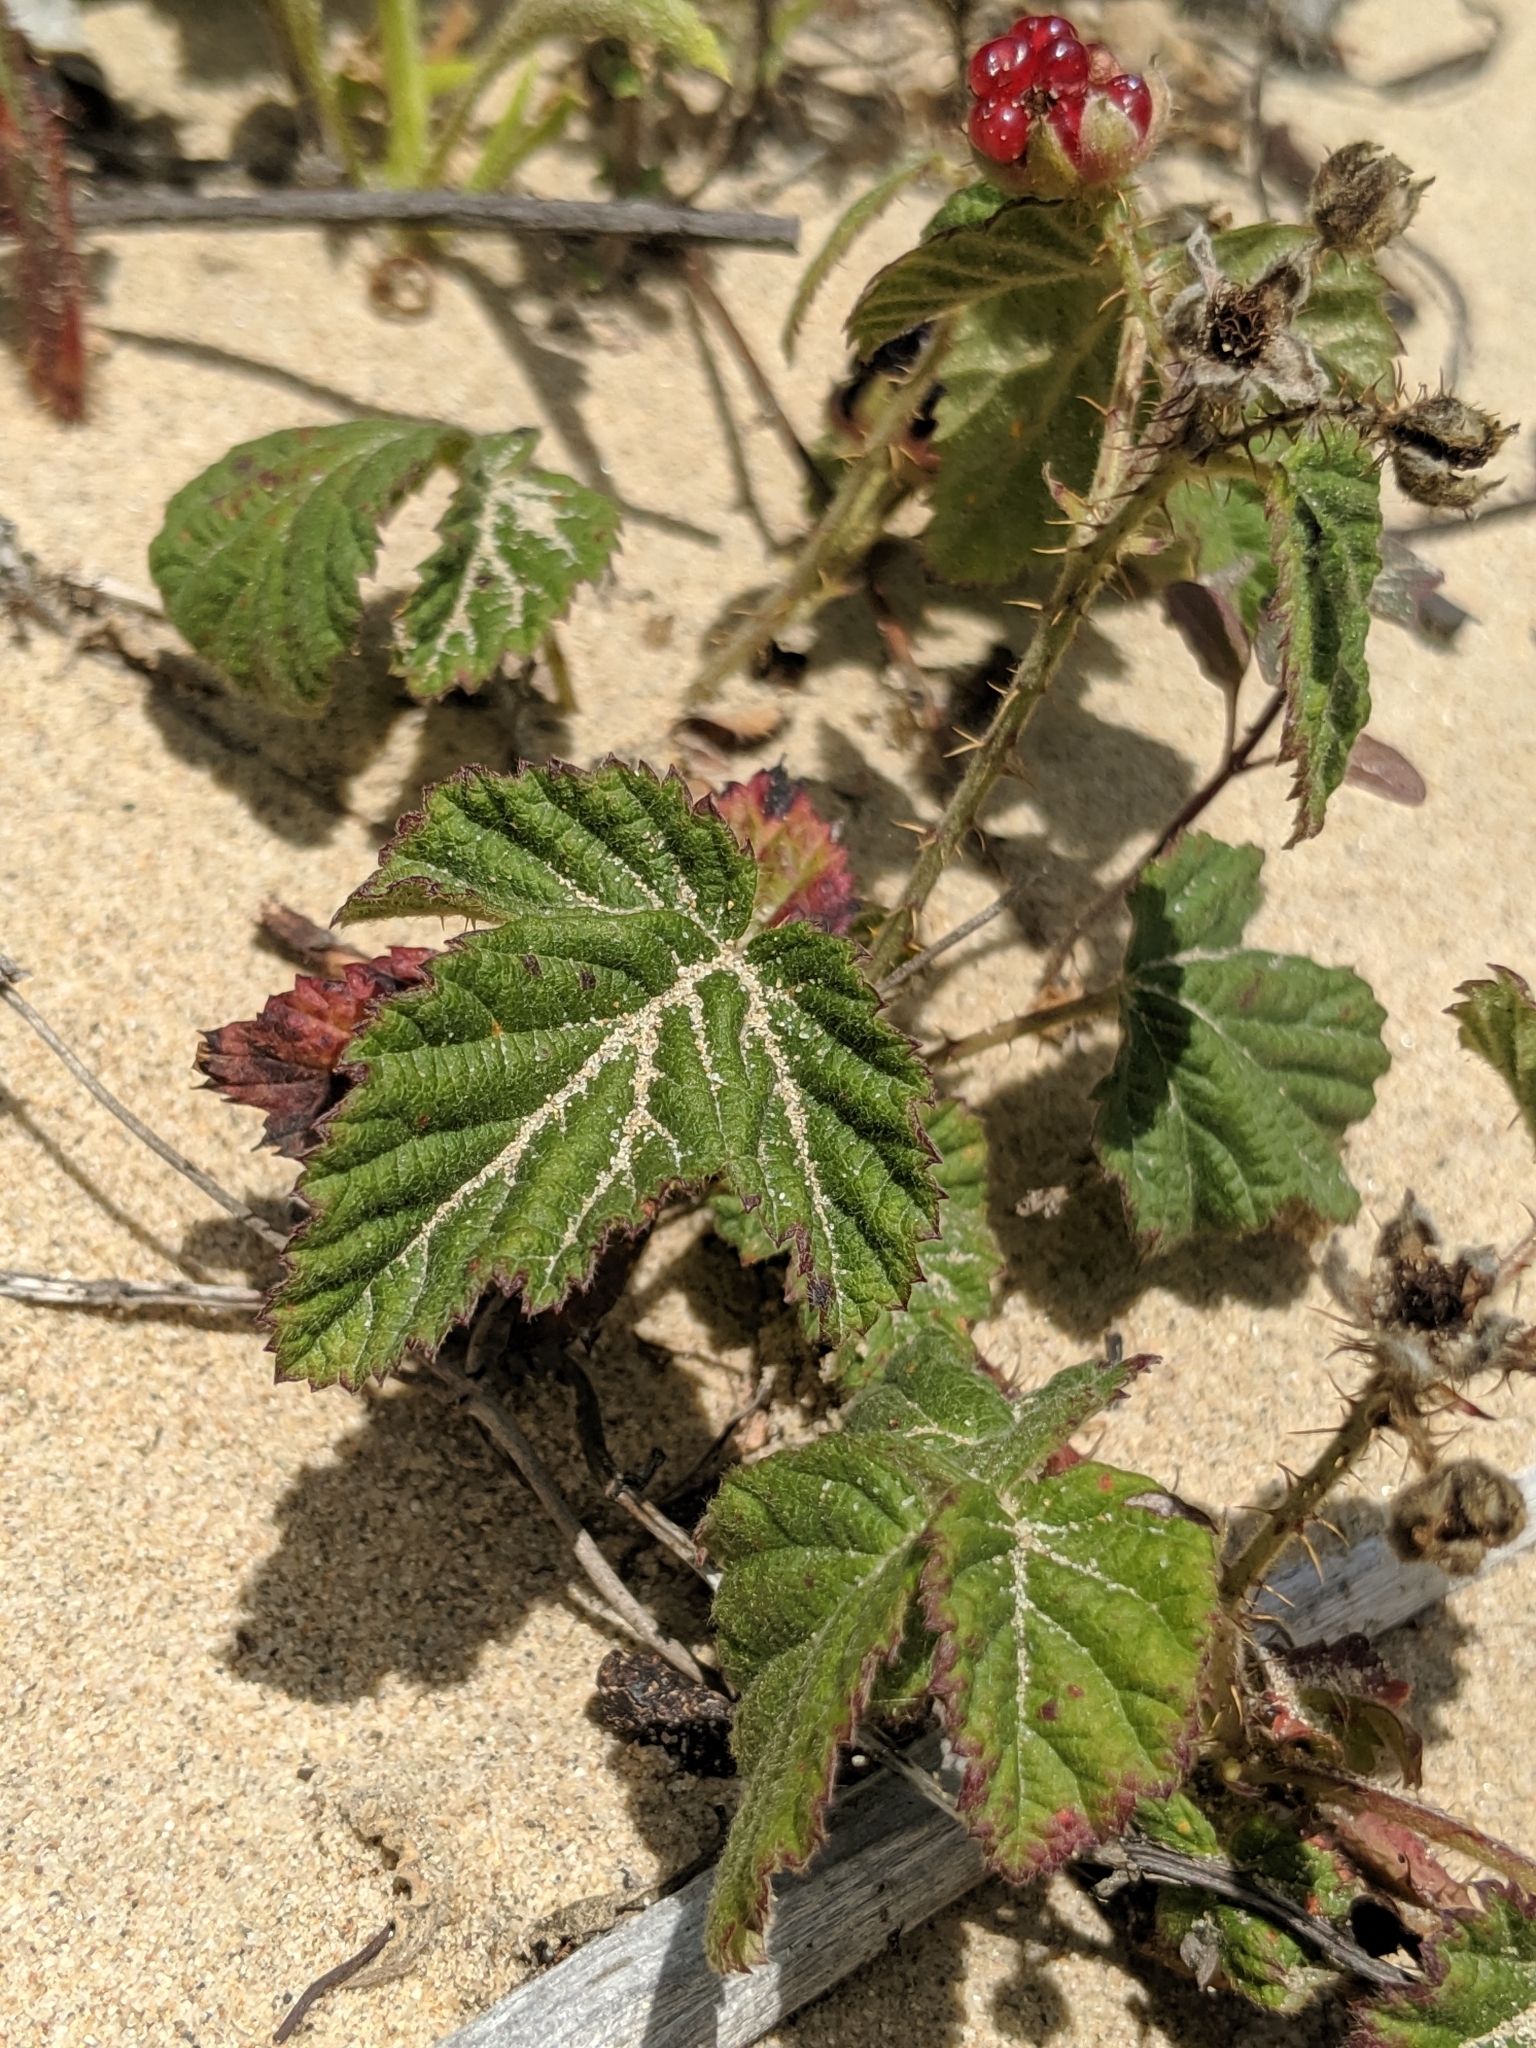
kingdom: Plantae
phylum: Tracheophyta
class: Magnoliopsida
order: Rosales
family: Rosaceae
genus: Rubus
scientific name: Rubus ursinus
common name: Pacific blackberry
